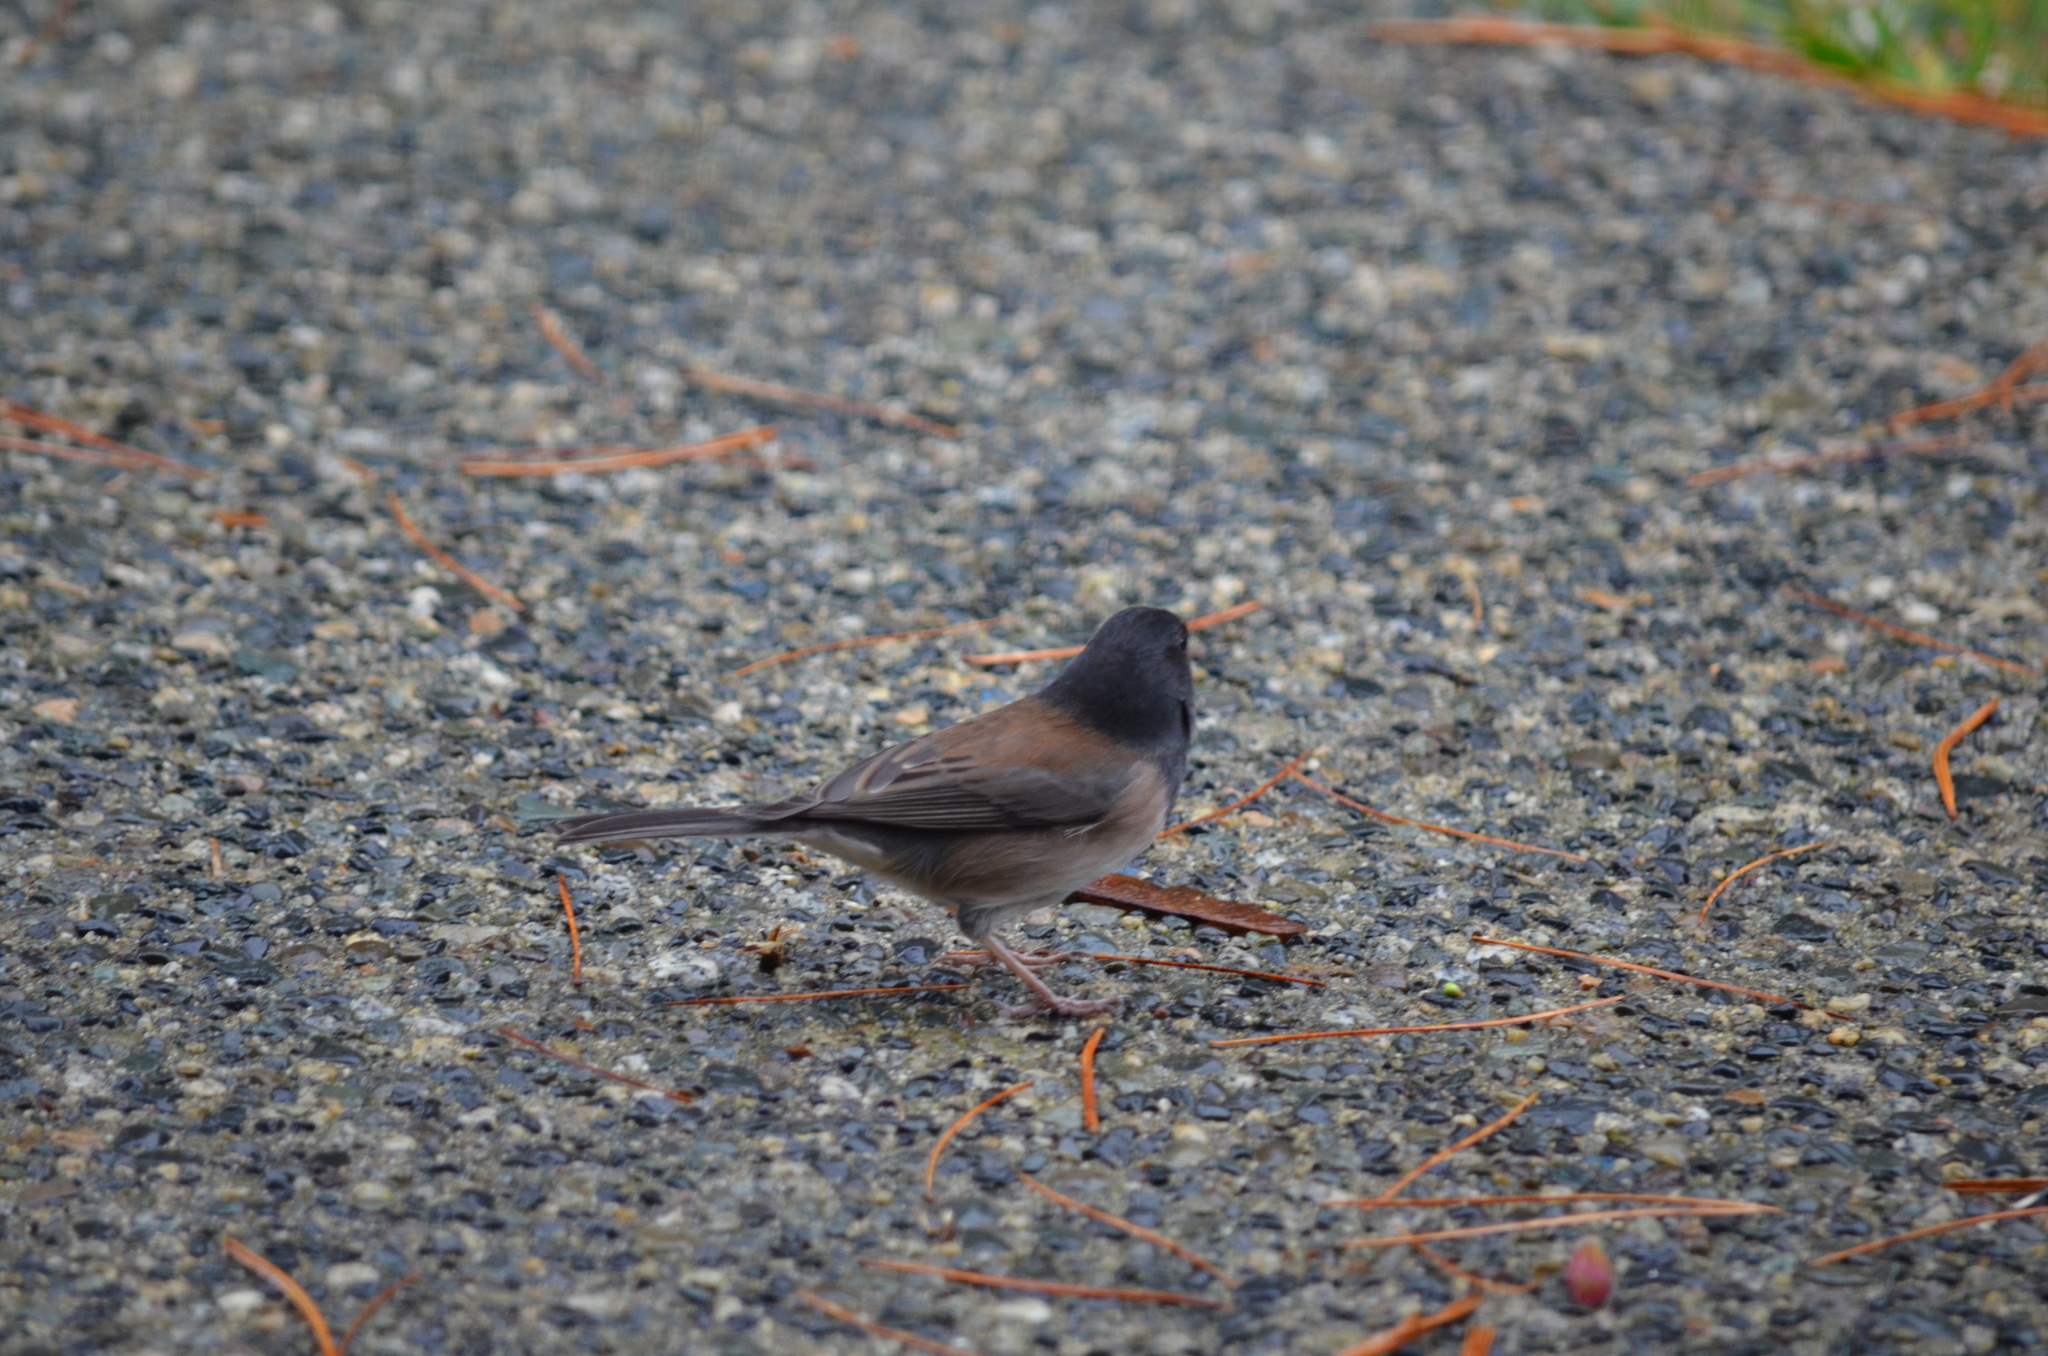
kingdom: Animalia
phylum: Chordata
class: Aves
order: Passeriformes
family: Passerellidae
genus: Junco
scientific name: Junco hyemalis
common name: Dark-eyed junco
